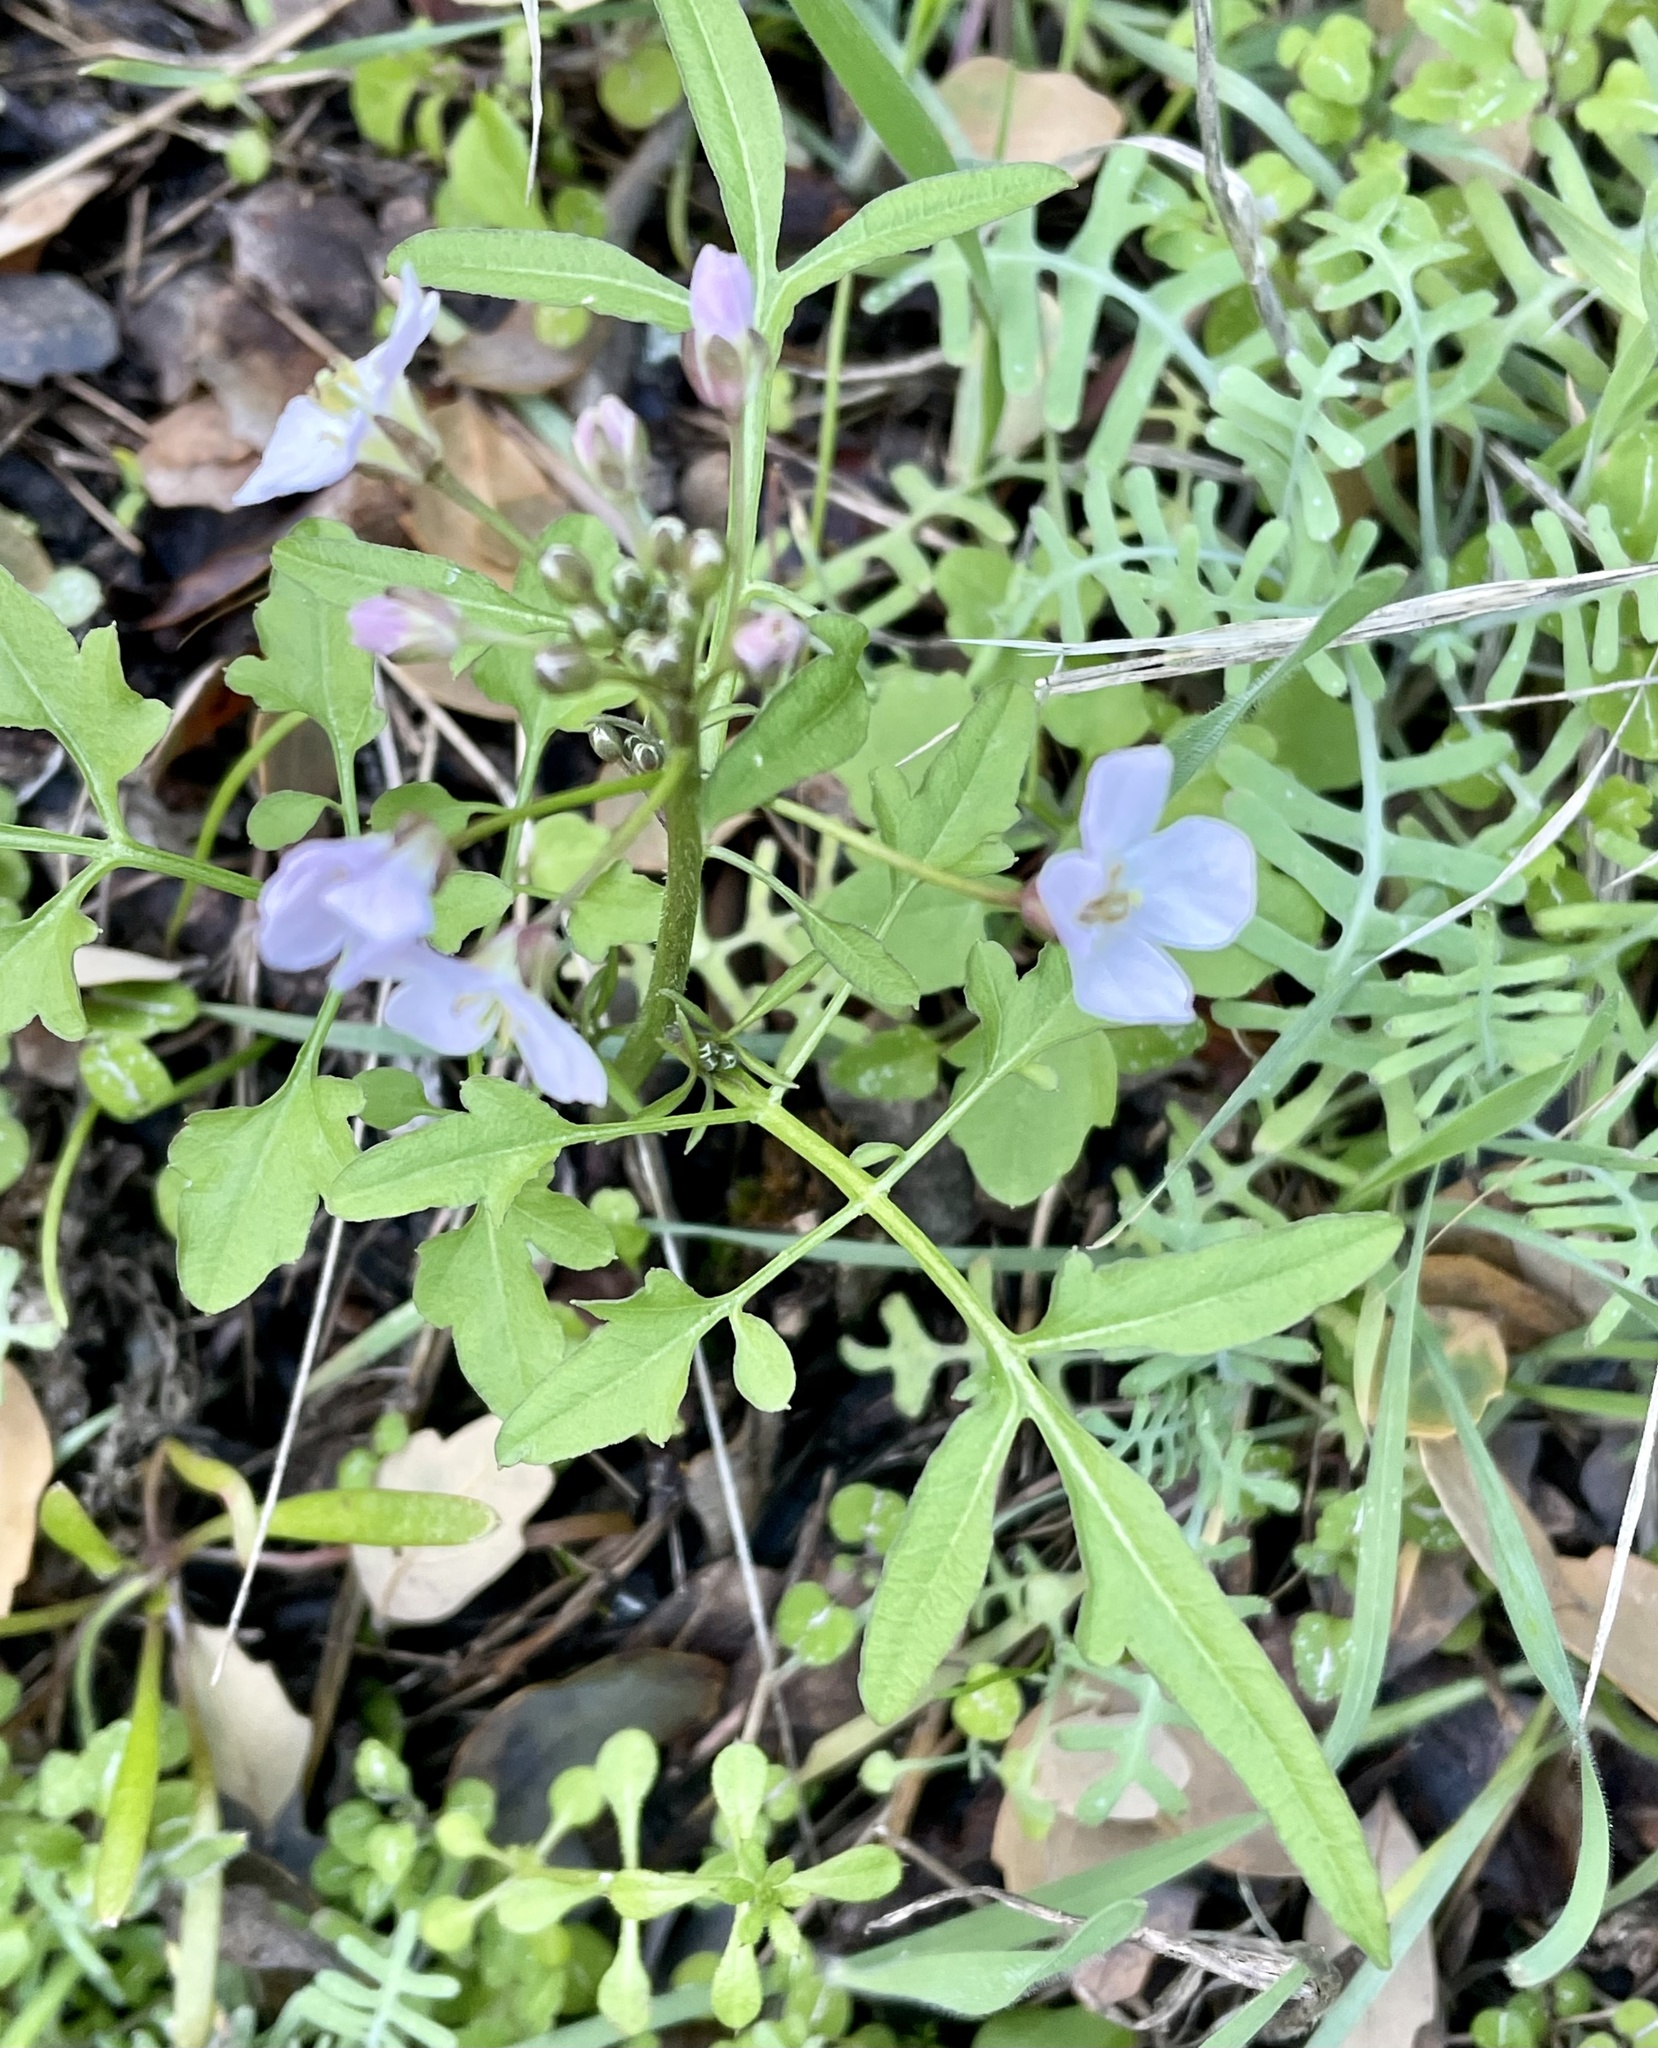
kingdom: Plantae
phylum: Tracheophyta
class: Magnoliopsida
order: Brassicales
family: Brassicaceae
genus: Cardamine
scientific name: Cardamine californica
